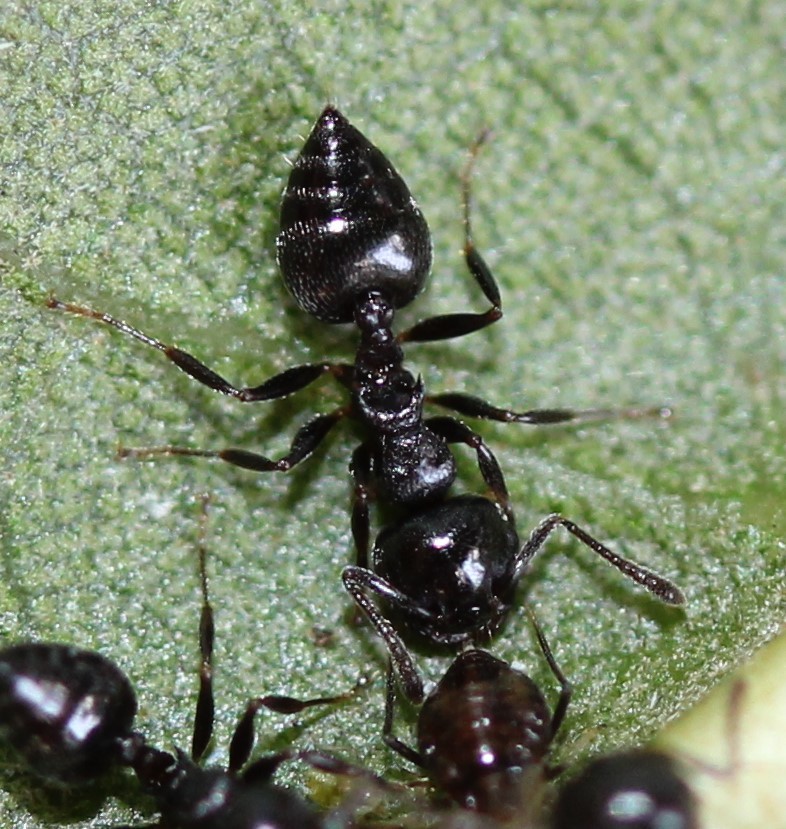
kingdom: Animalia
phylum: Arthropoda
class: Insecta
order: Hymenoptera
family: Formicidae
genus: Crematogaster
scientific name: Crematogaster ashmeadi
